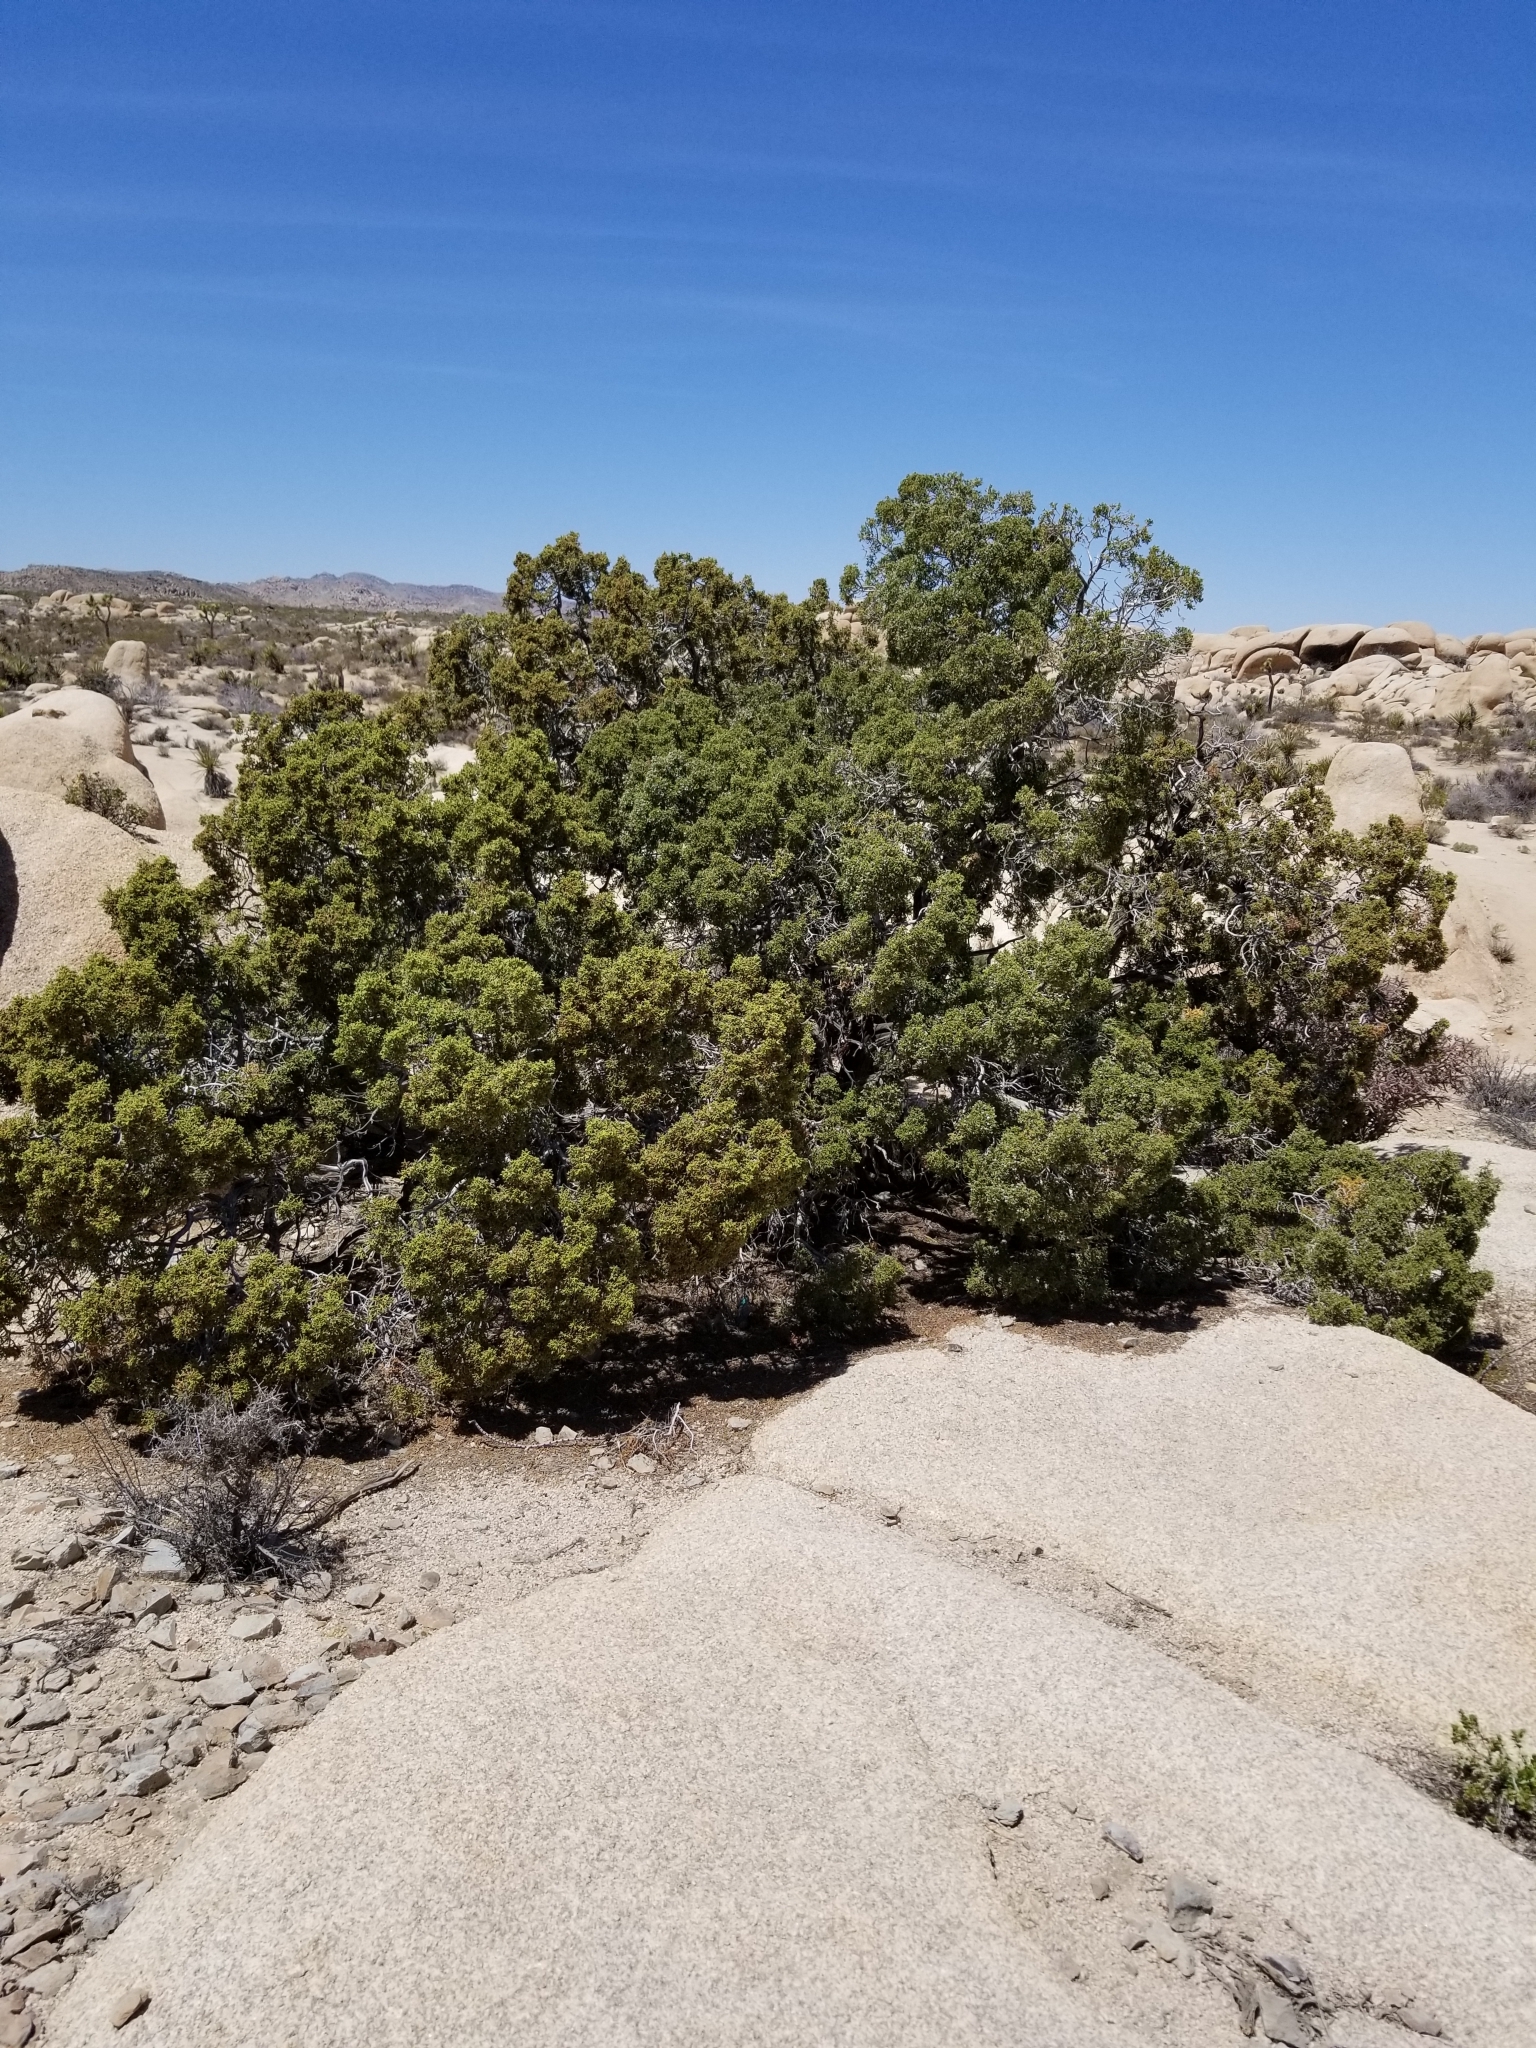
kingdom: Plantae
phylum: Tracheophyta
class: Pinopsida
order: Pinales
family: Cupressaceae
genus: Juniperus
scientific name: Juniperus californica
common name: California juniper
